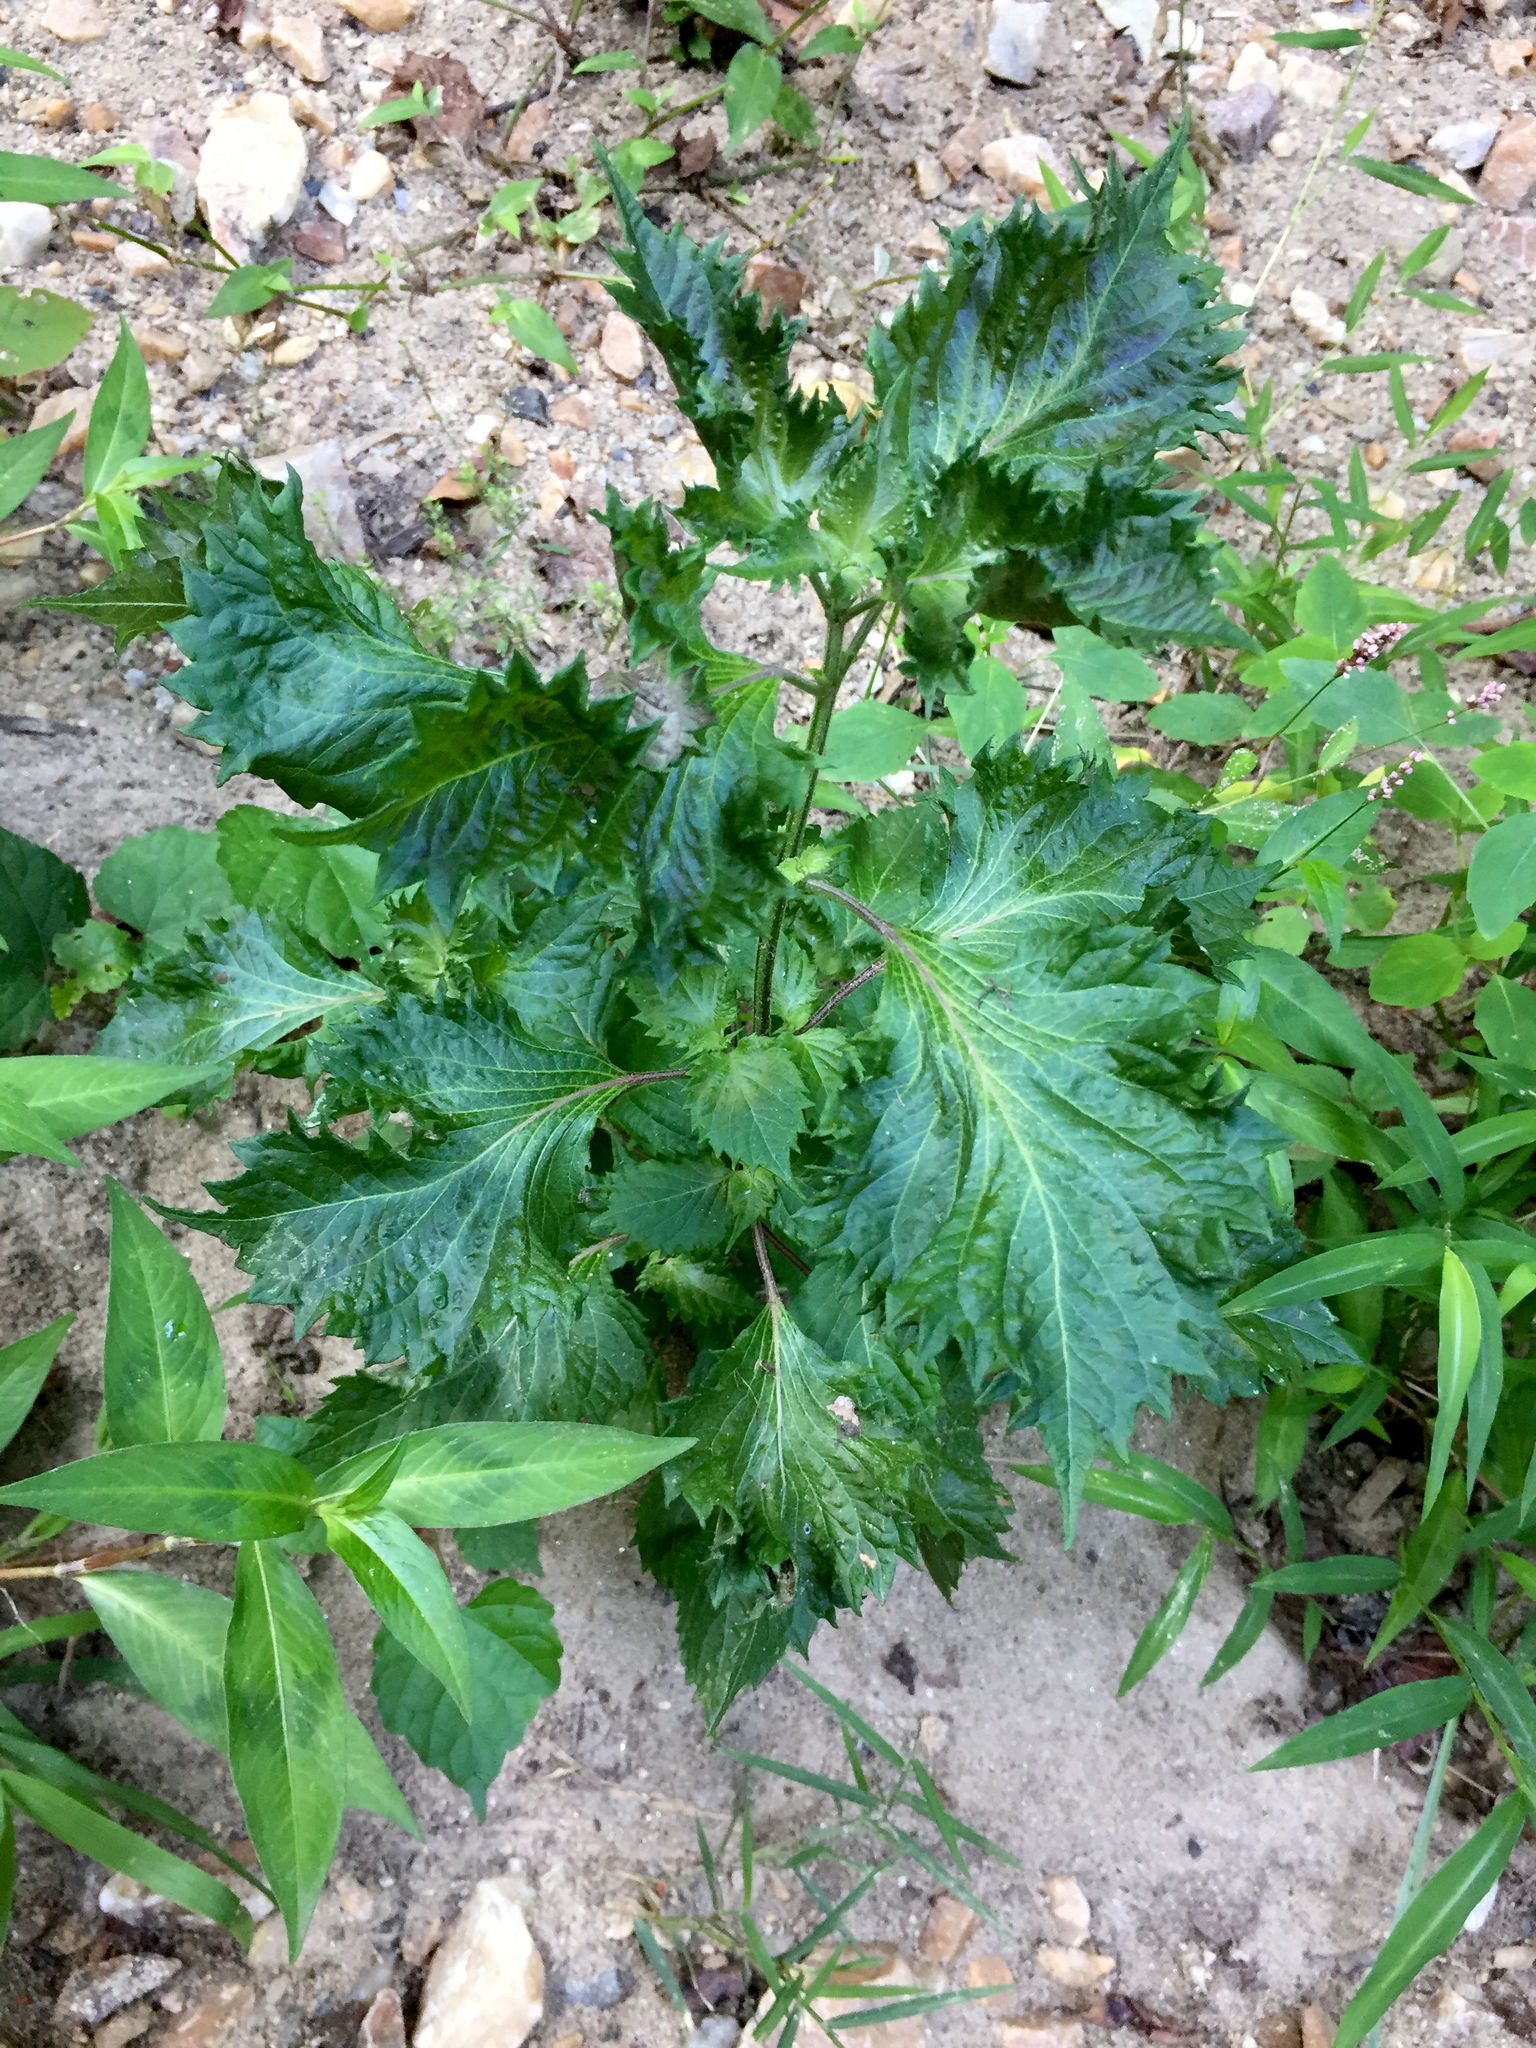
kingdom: Plantae
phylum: Tracheophyta
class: Magnoliopsida
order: Lamiales
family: Lamiaceae
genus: Perilla
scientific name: Perilla frutescens
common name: Perilla
